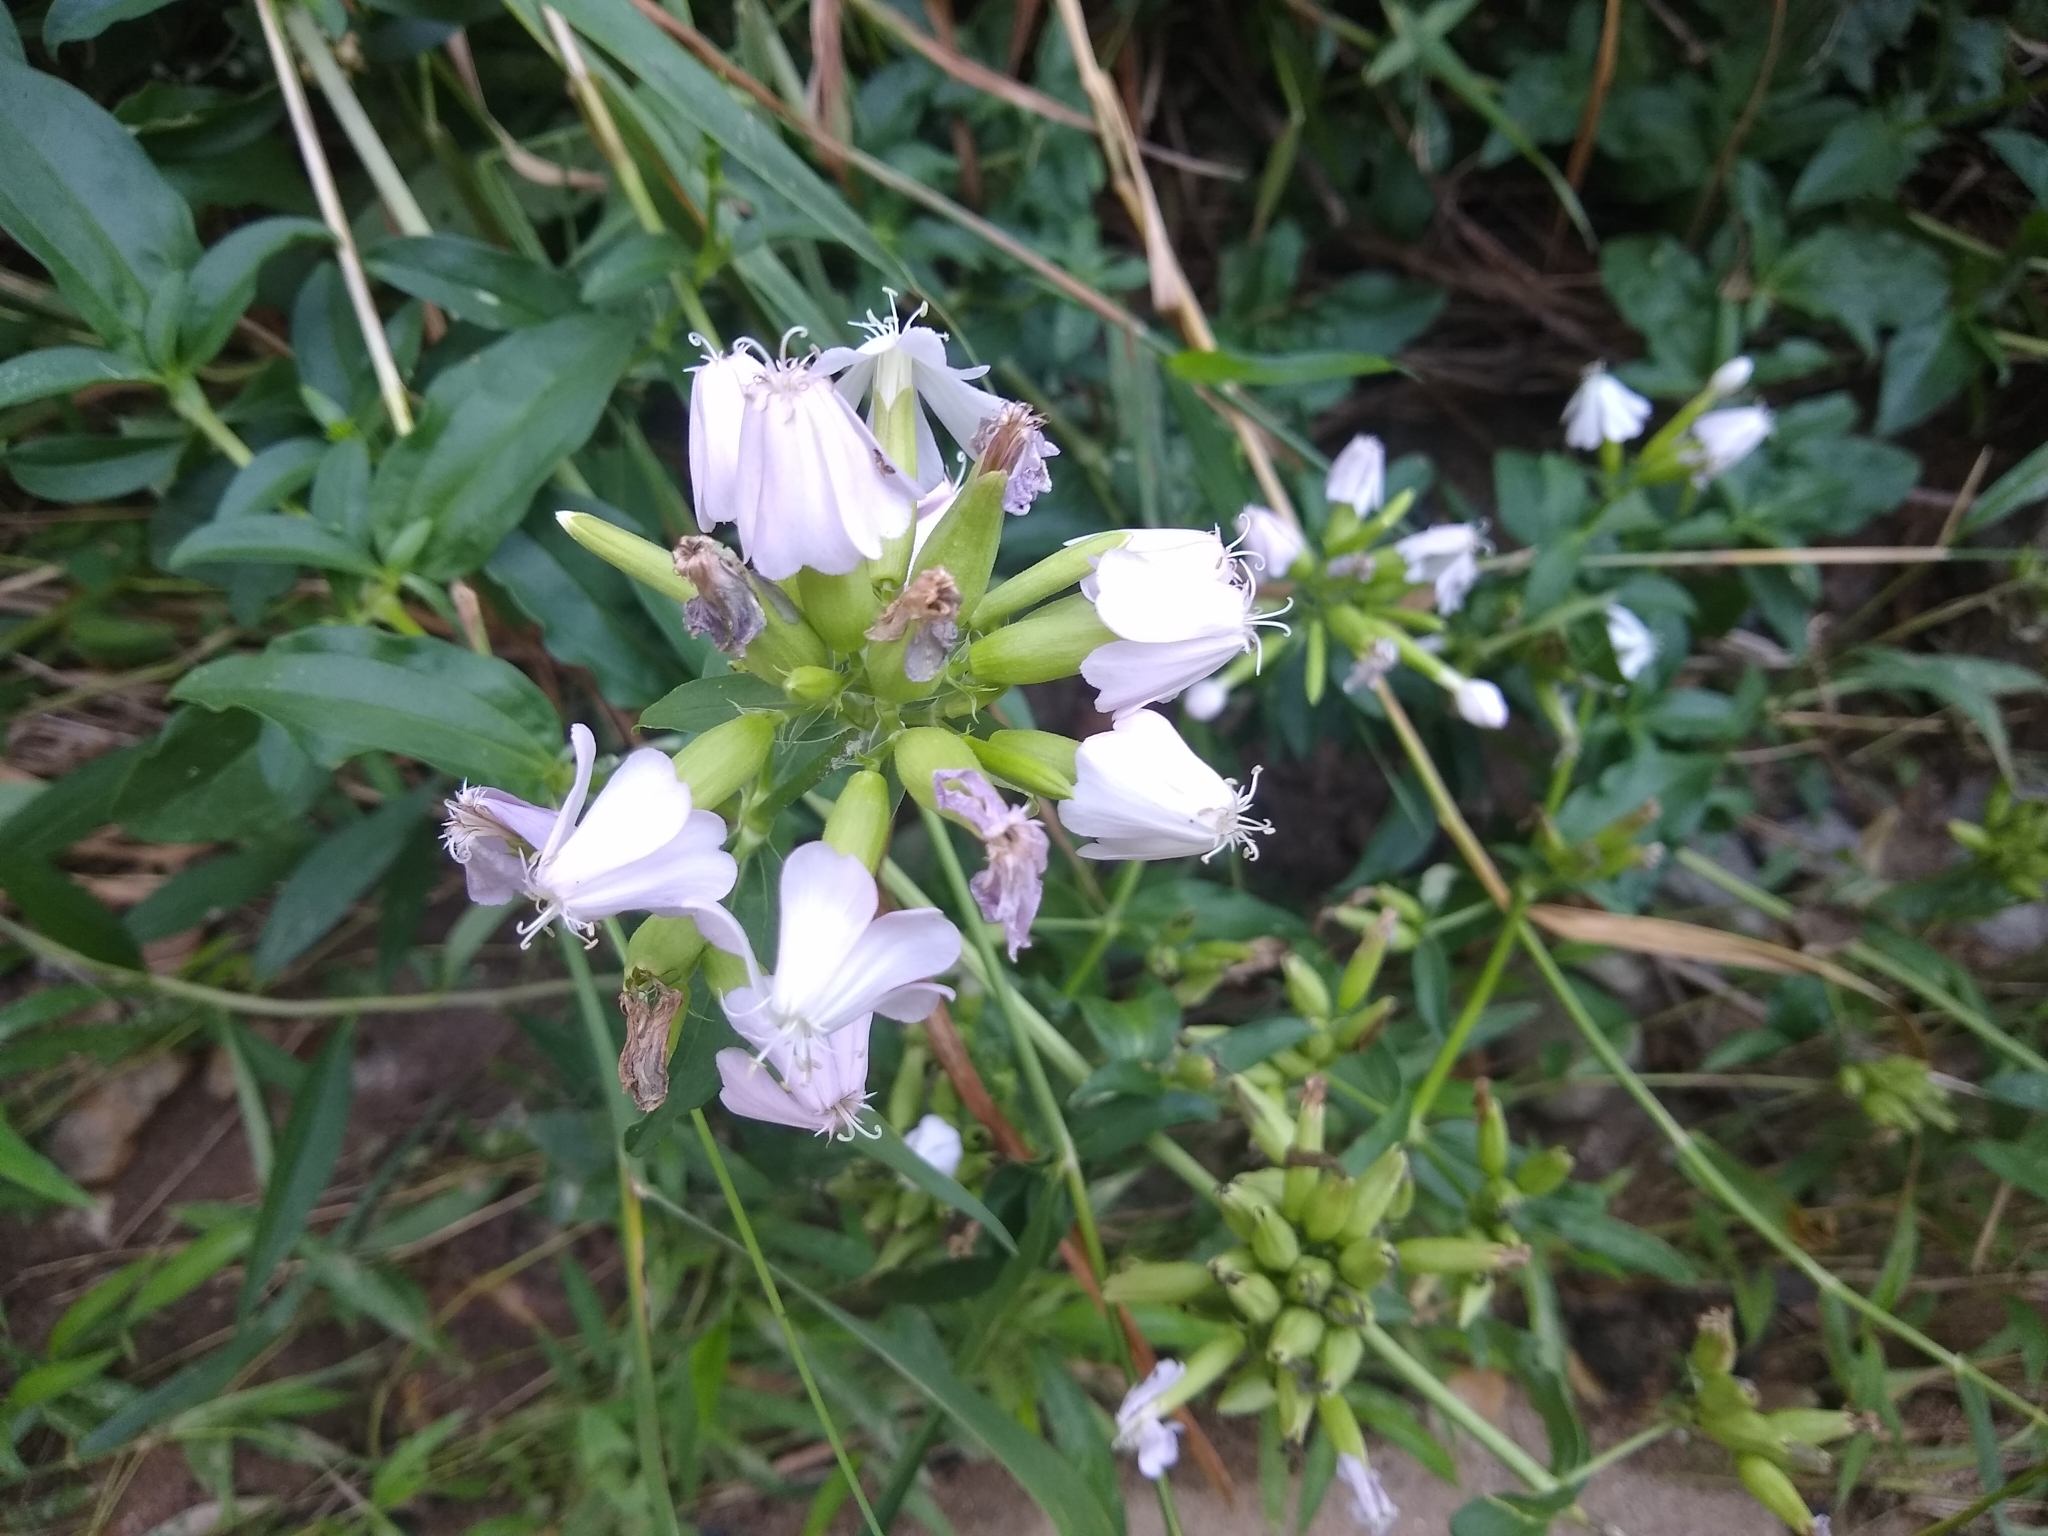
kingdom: Plantae
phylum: Tracheophyta
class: Magnoliopsida
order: Caryophyllales
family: Caryophyllaceae
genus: Saponaria
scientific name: Saponaria officinalis
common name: Soapwort
